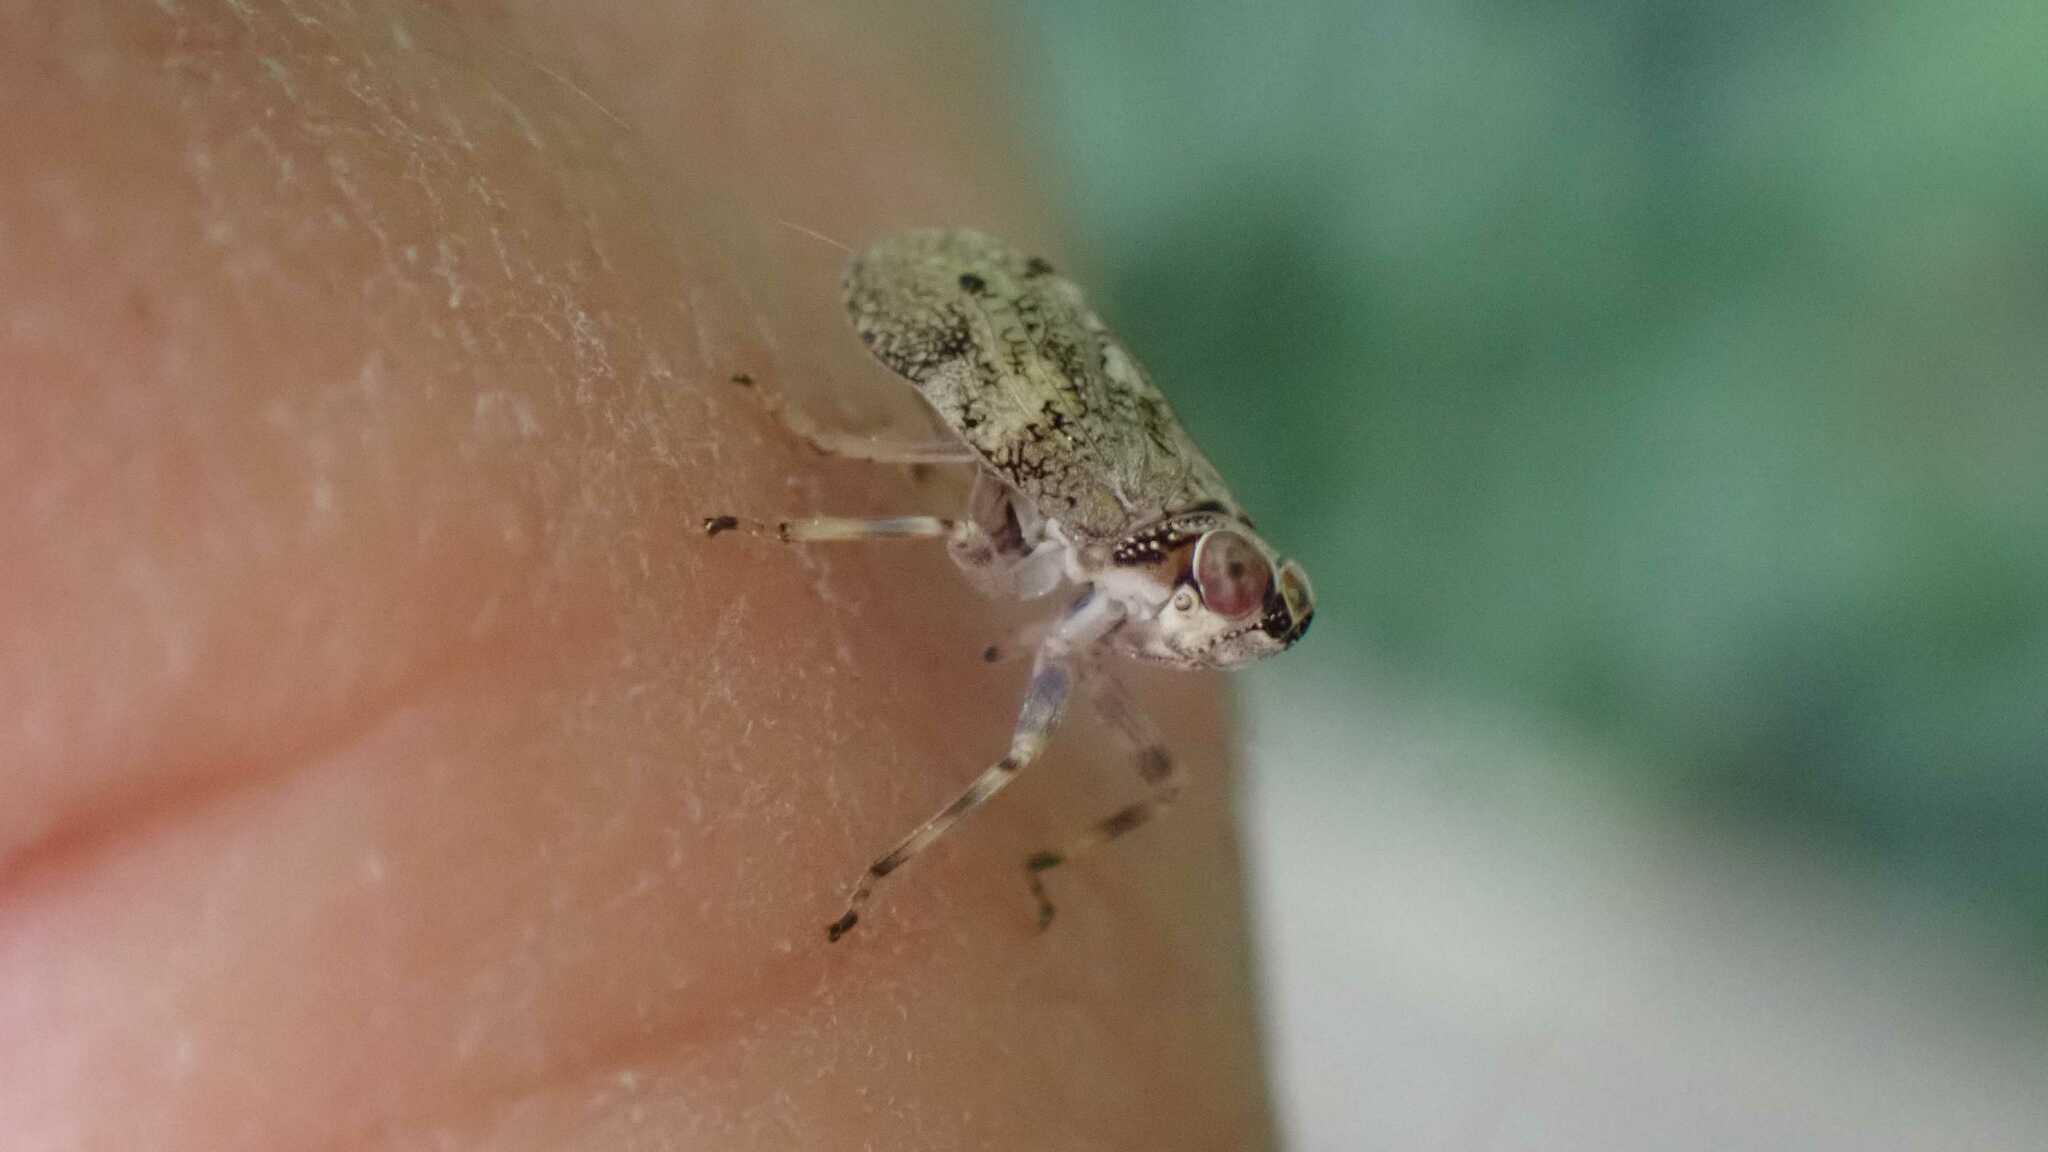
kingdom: Animalia
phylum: Arthropoda
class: Insecta
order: Hemiptera
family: Issidae
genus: Issus
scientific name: Issus coleoptratus
